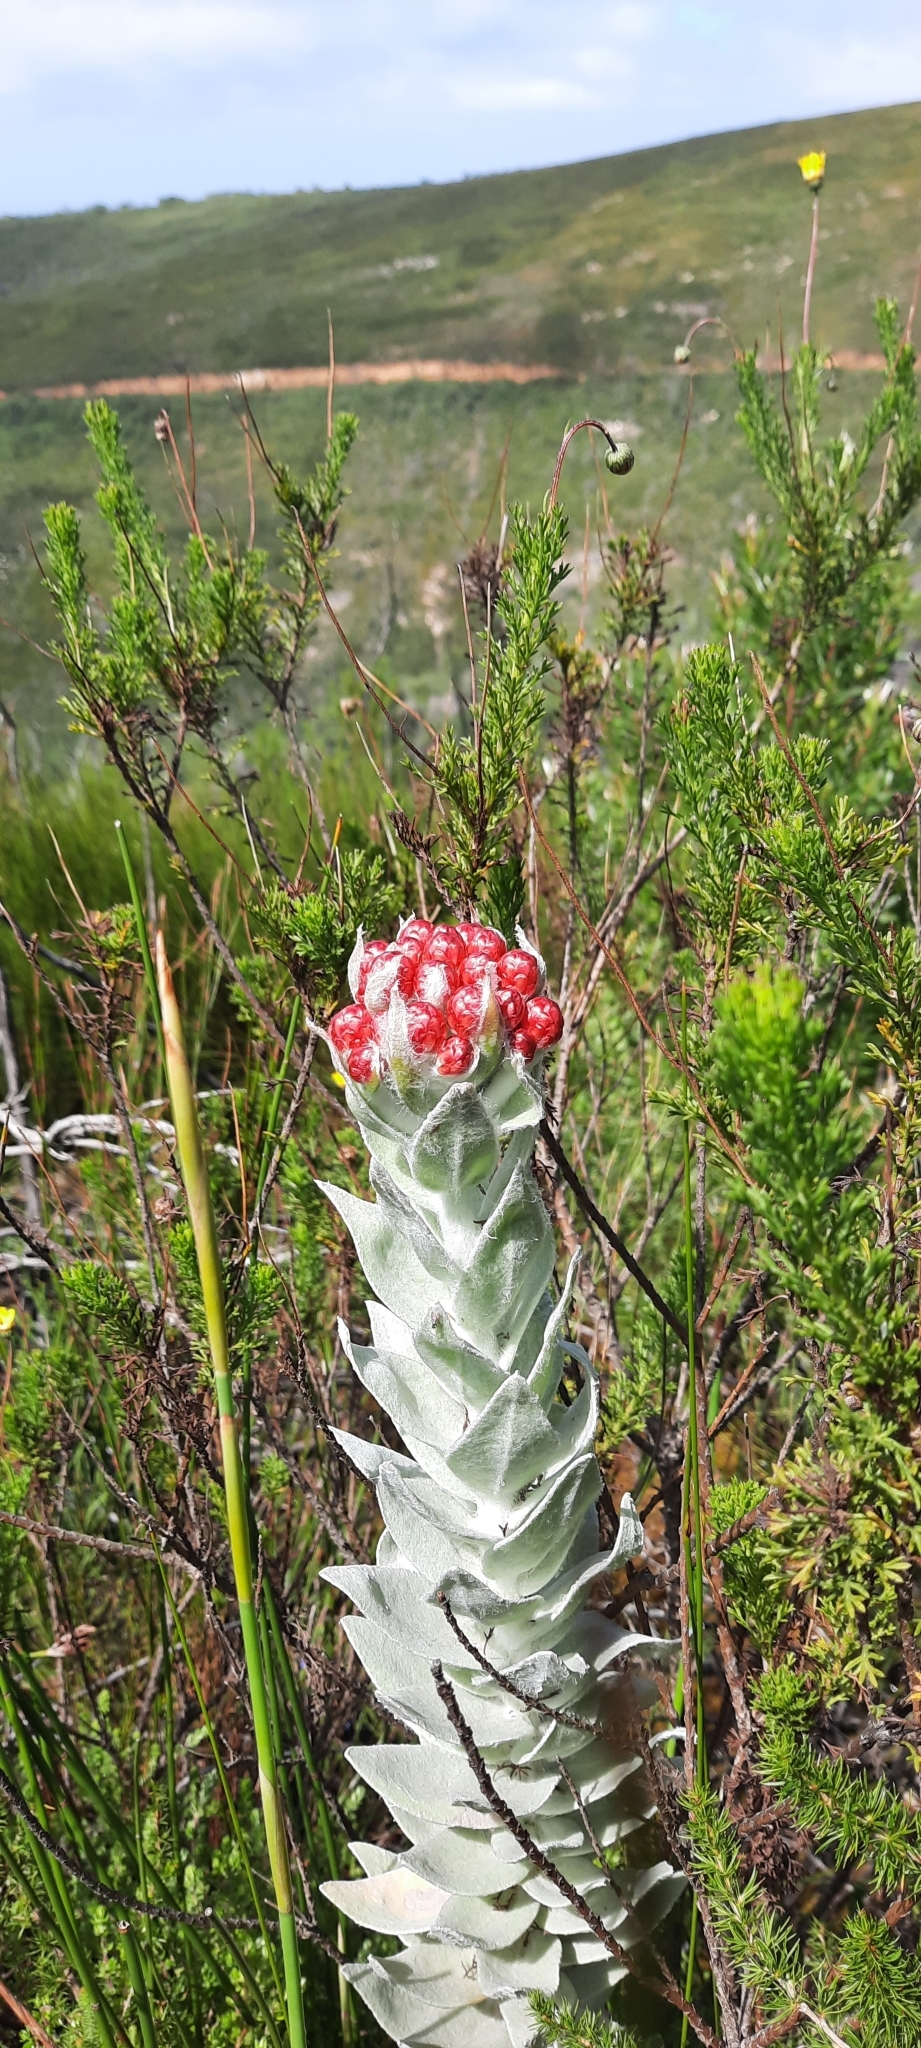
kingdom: Plantae
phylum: Tracheophyta
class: Magnoliopsida
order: Asterales
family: Asteraceae
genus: Syncarpha
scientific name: Syncarpha eximia
